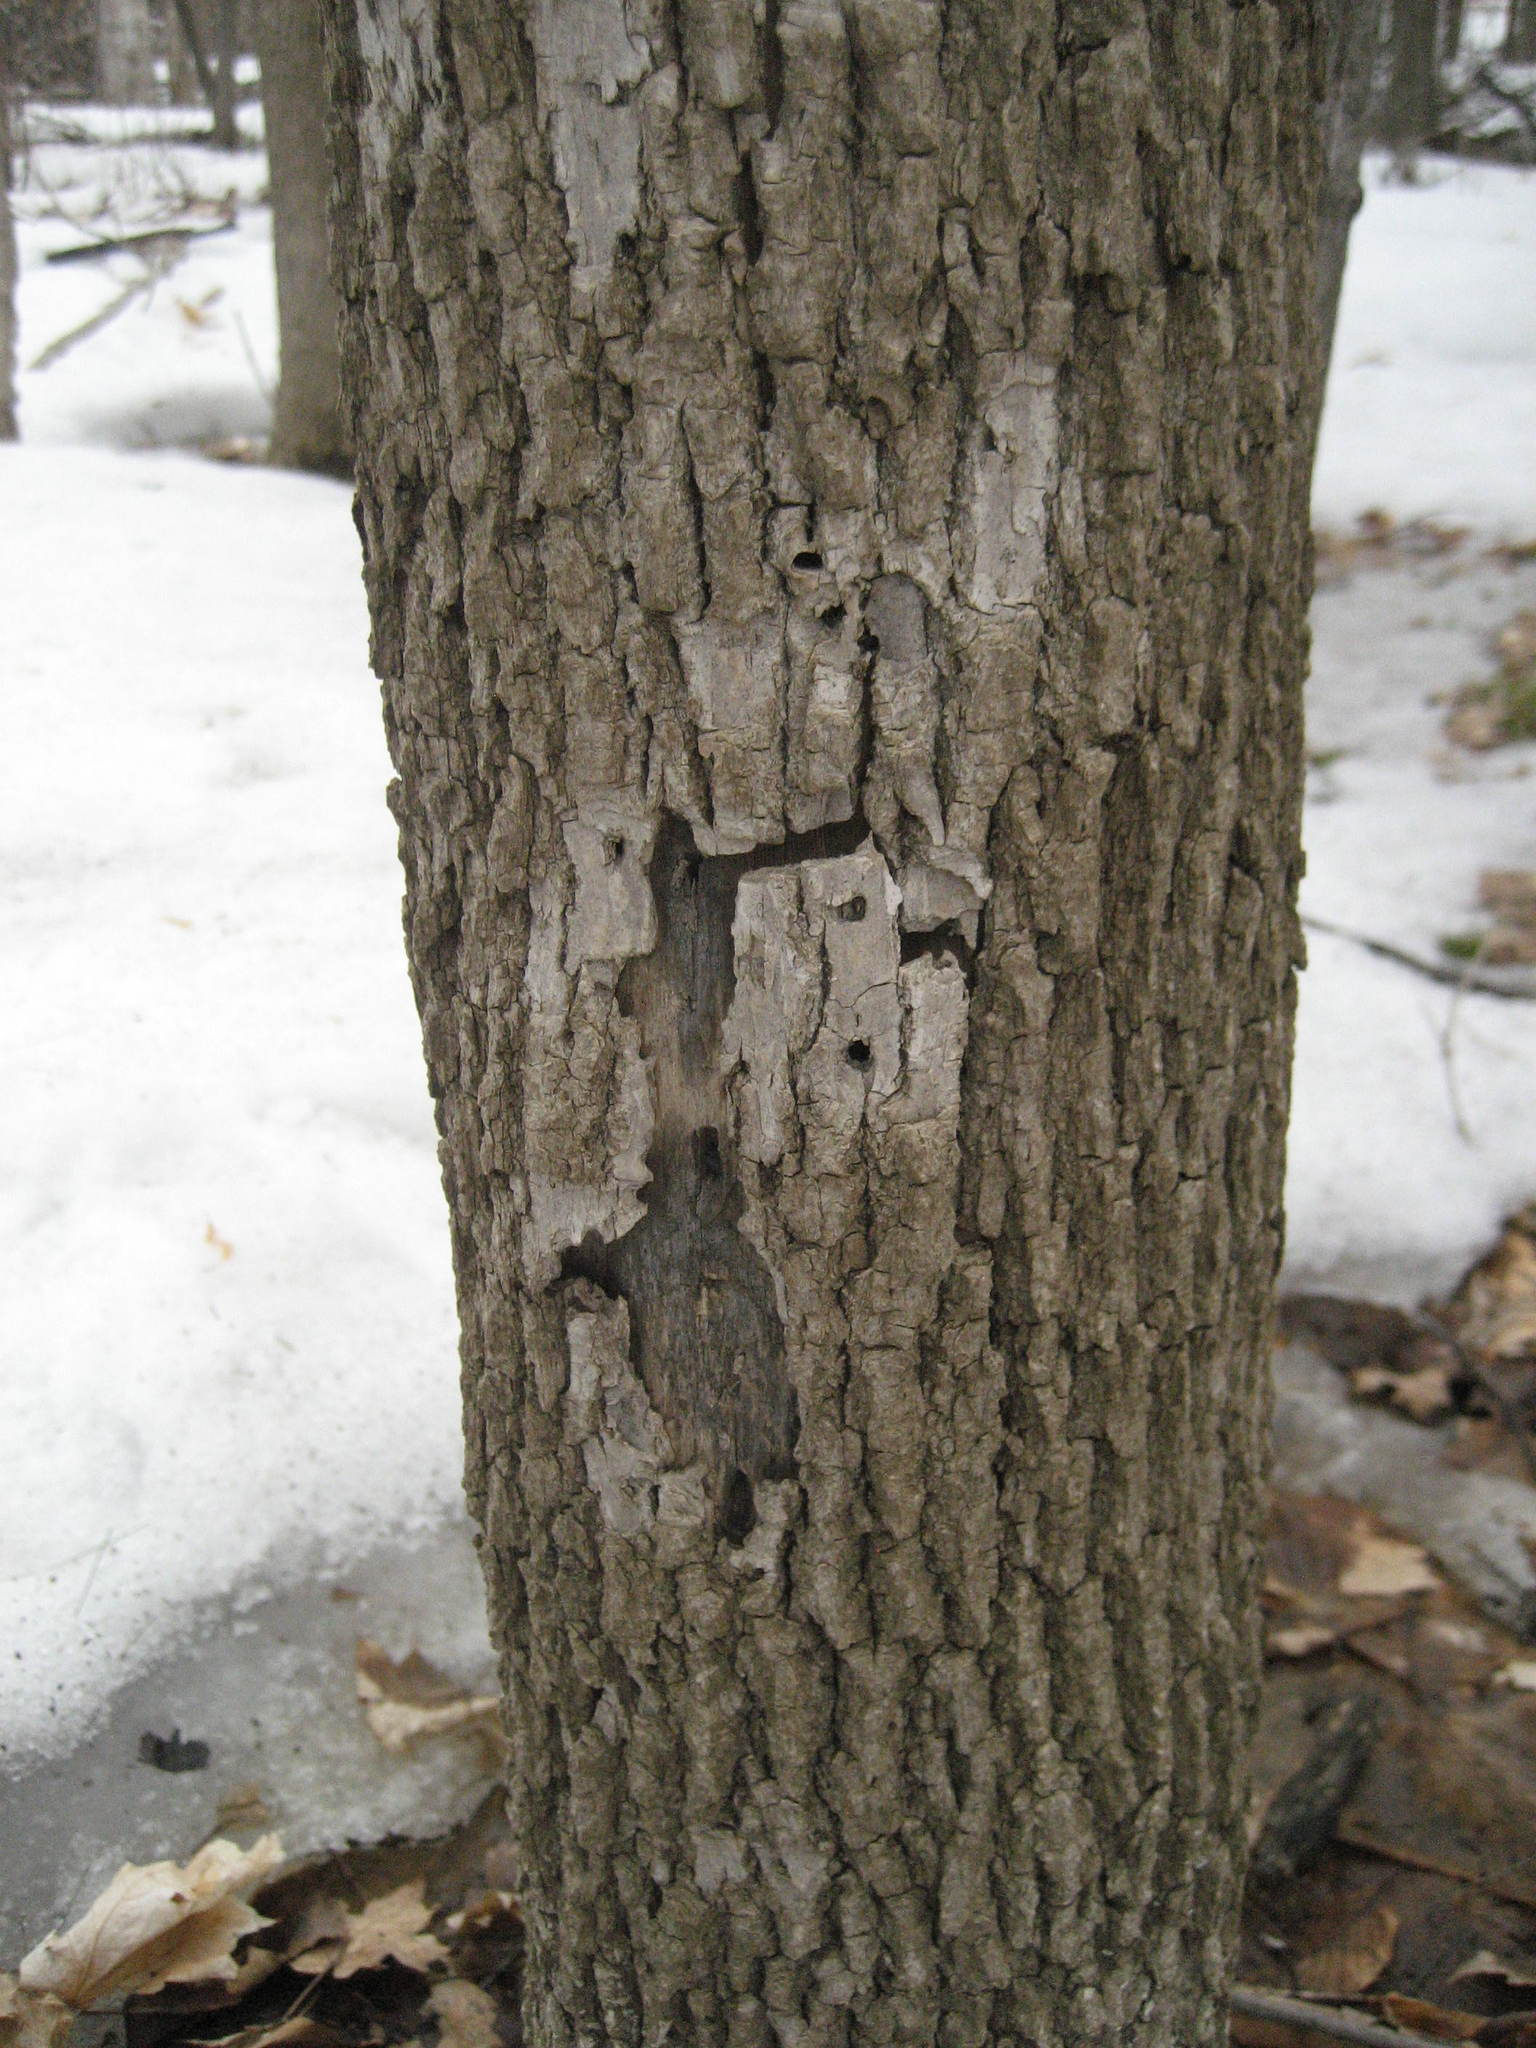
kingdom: Animalia
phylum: Arthropoda
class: Insecta
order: Coleoptera
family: Buprestidae
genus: Agrilus
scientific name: Agrilus planipennis
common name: Emerald ash borer
